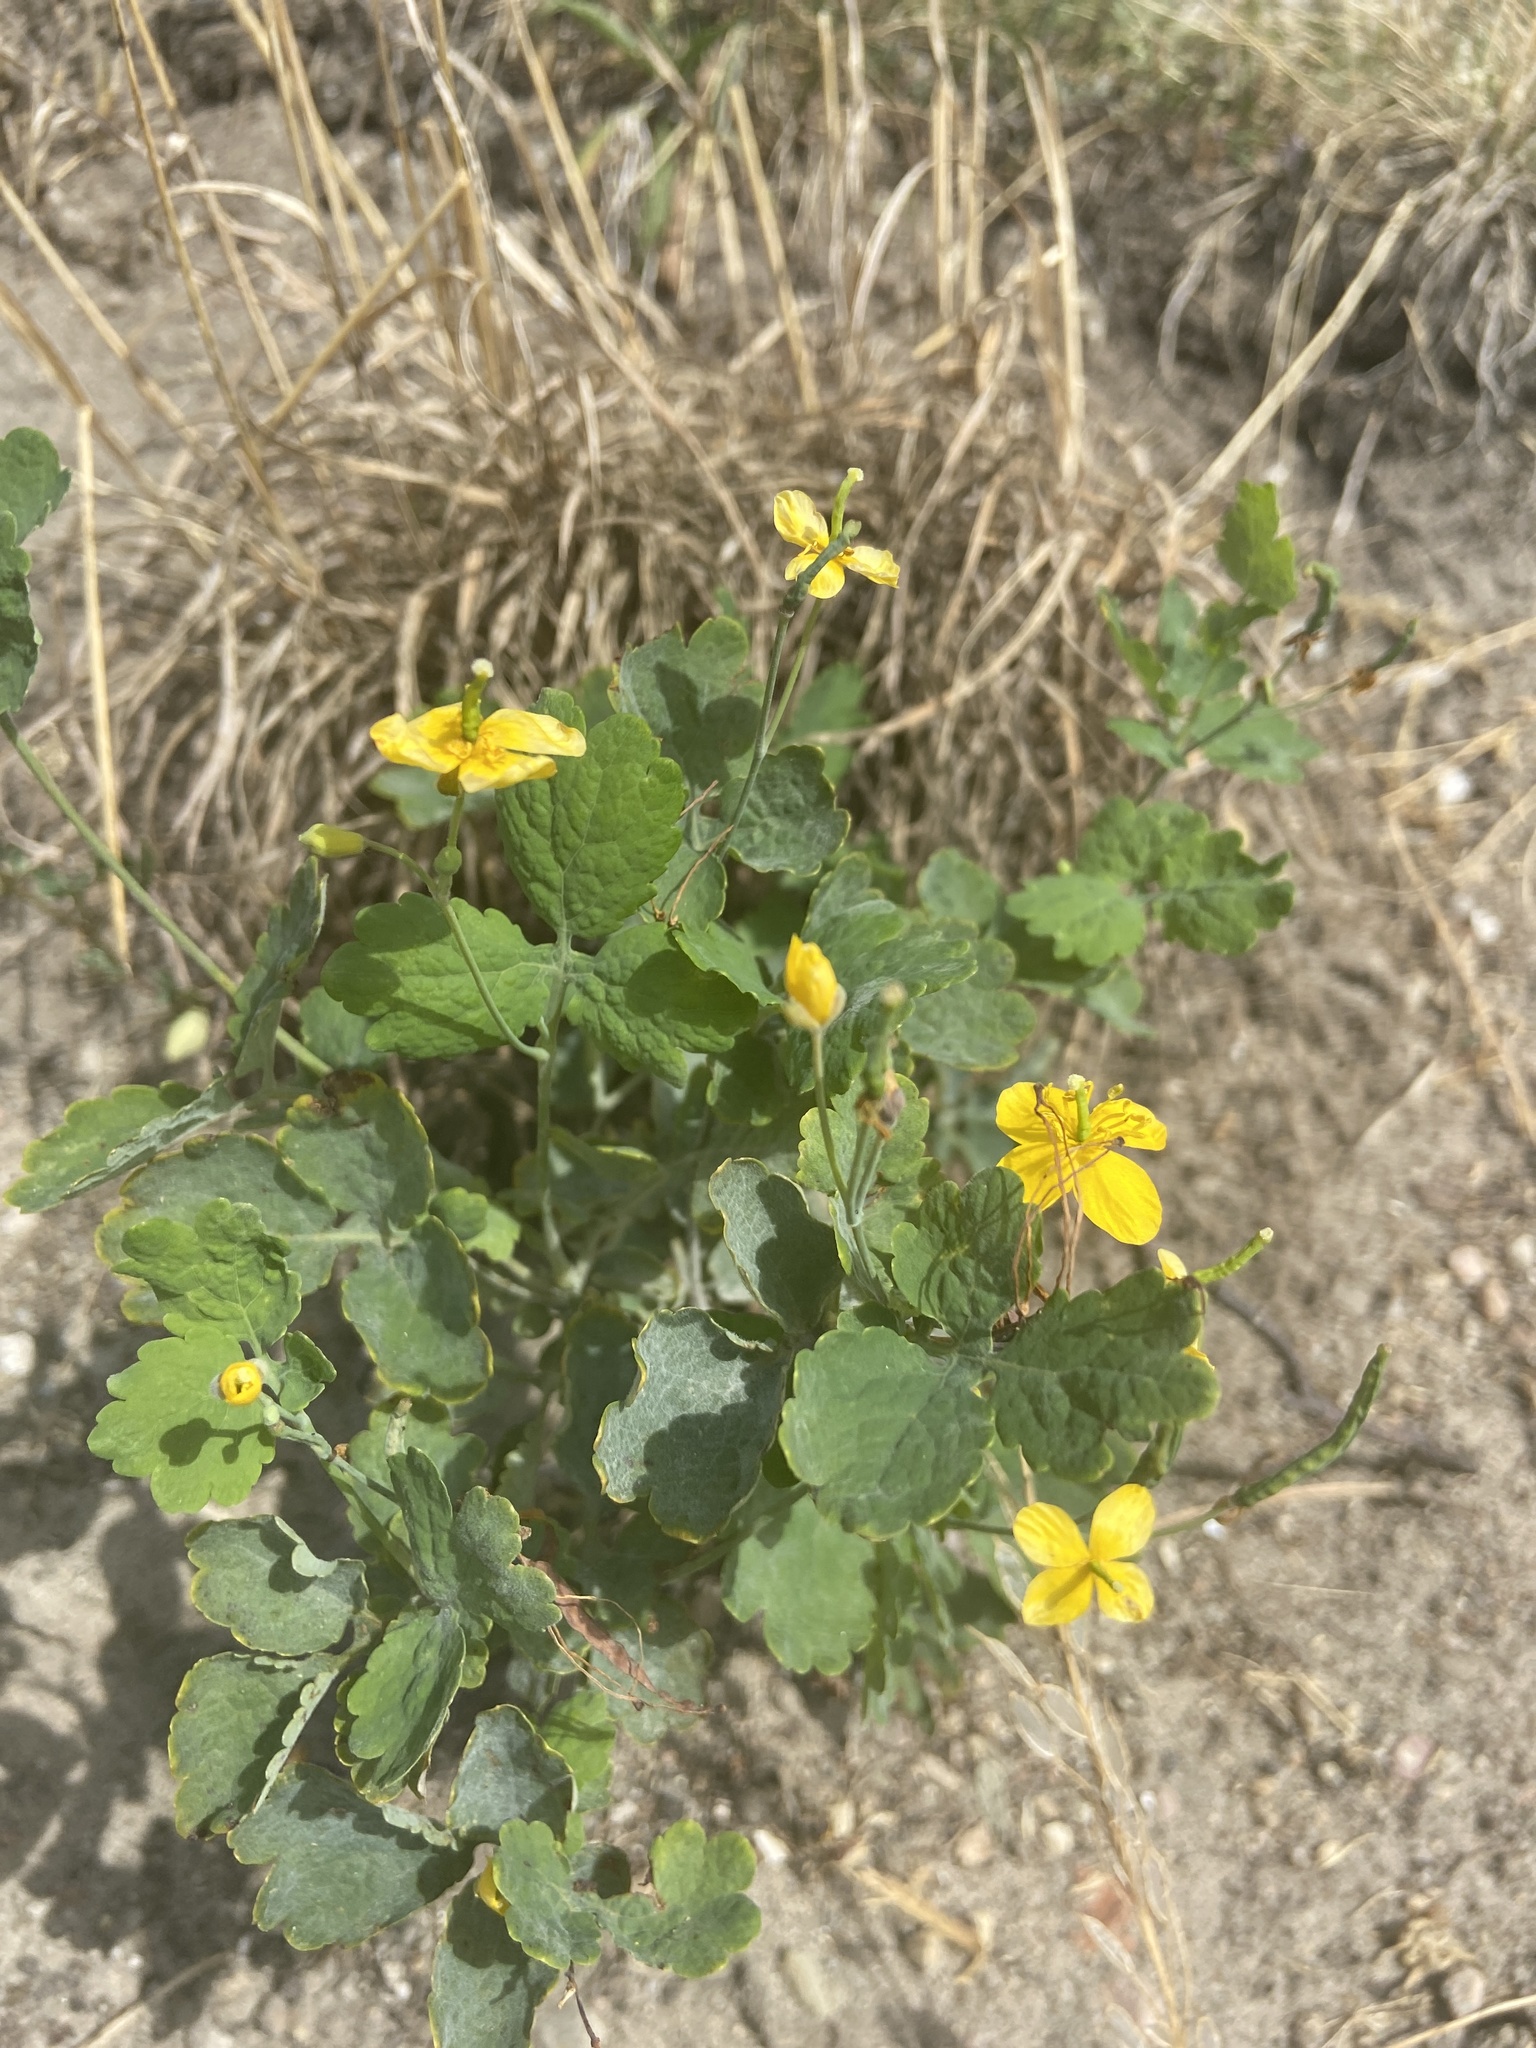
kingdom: Plantae
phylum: Tracheophyta
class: Magnoliopsida
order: Ranunculales
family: Papaveraceae
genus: Chelidonium
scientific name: Chelidonium majus
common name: Greater celandine
